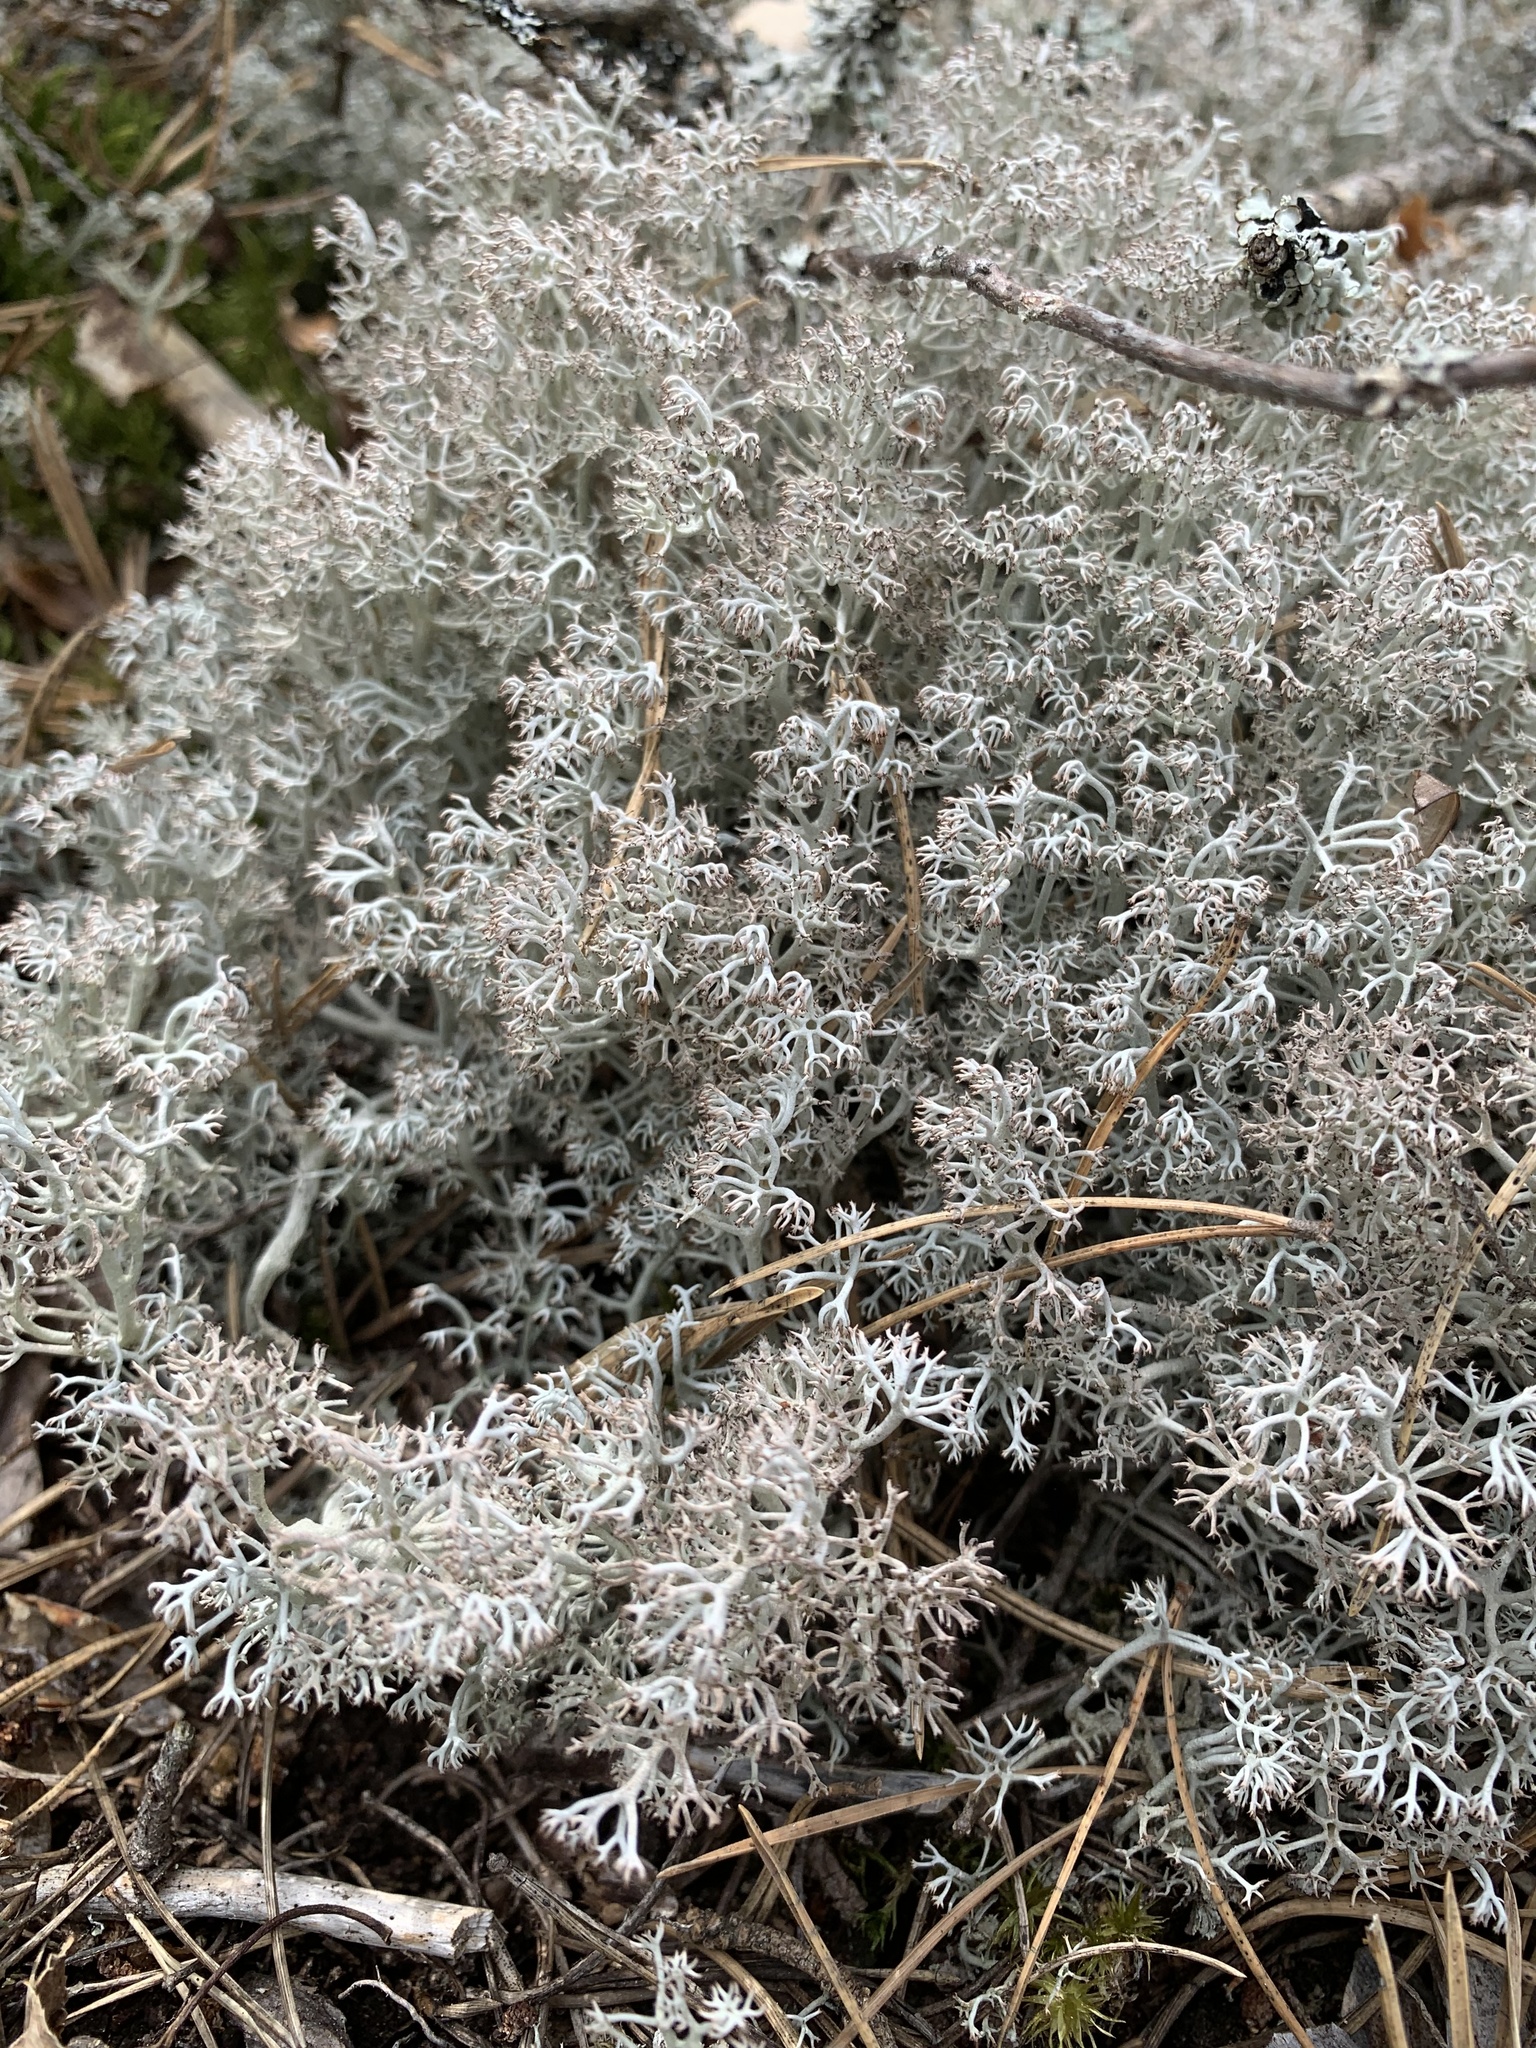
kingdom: Fungi
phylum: Ascomycota
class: Lecanoromycetes
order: Lecanorales
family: Cladoniaceae
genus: Cladonia
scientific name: Cladonia rangiferina
